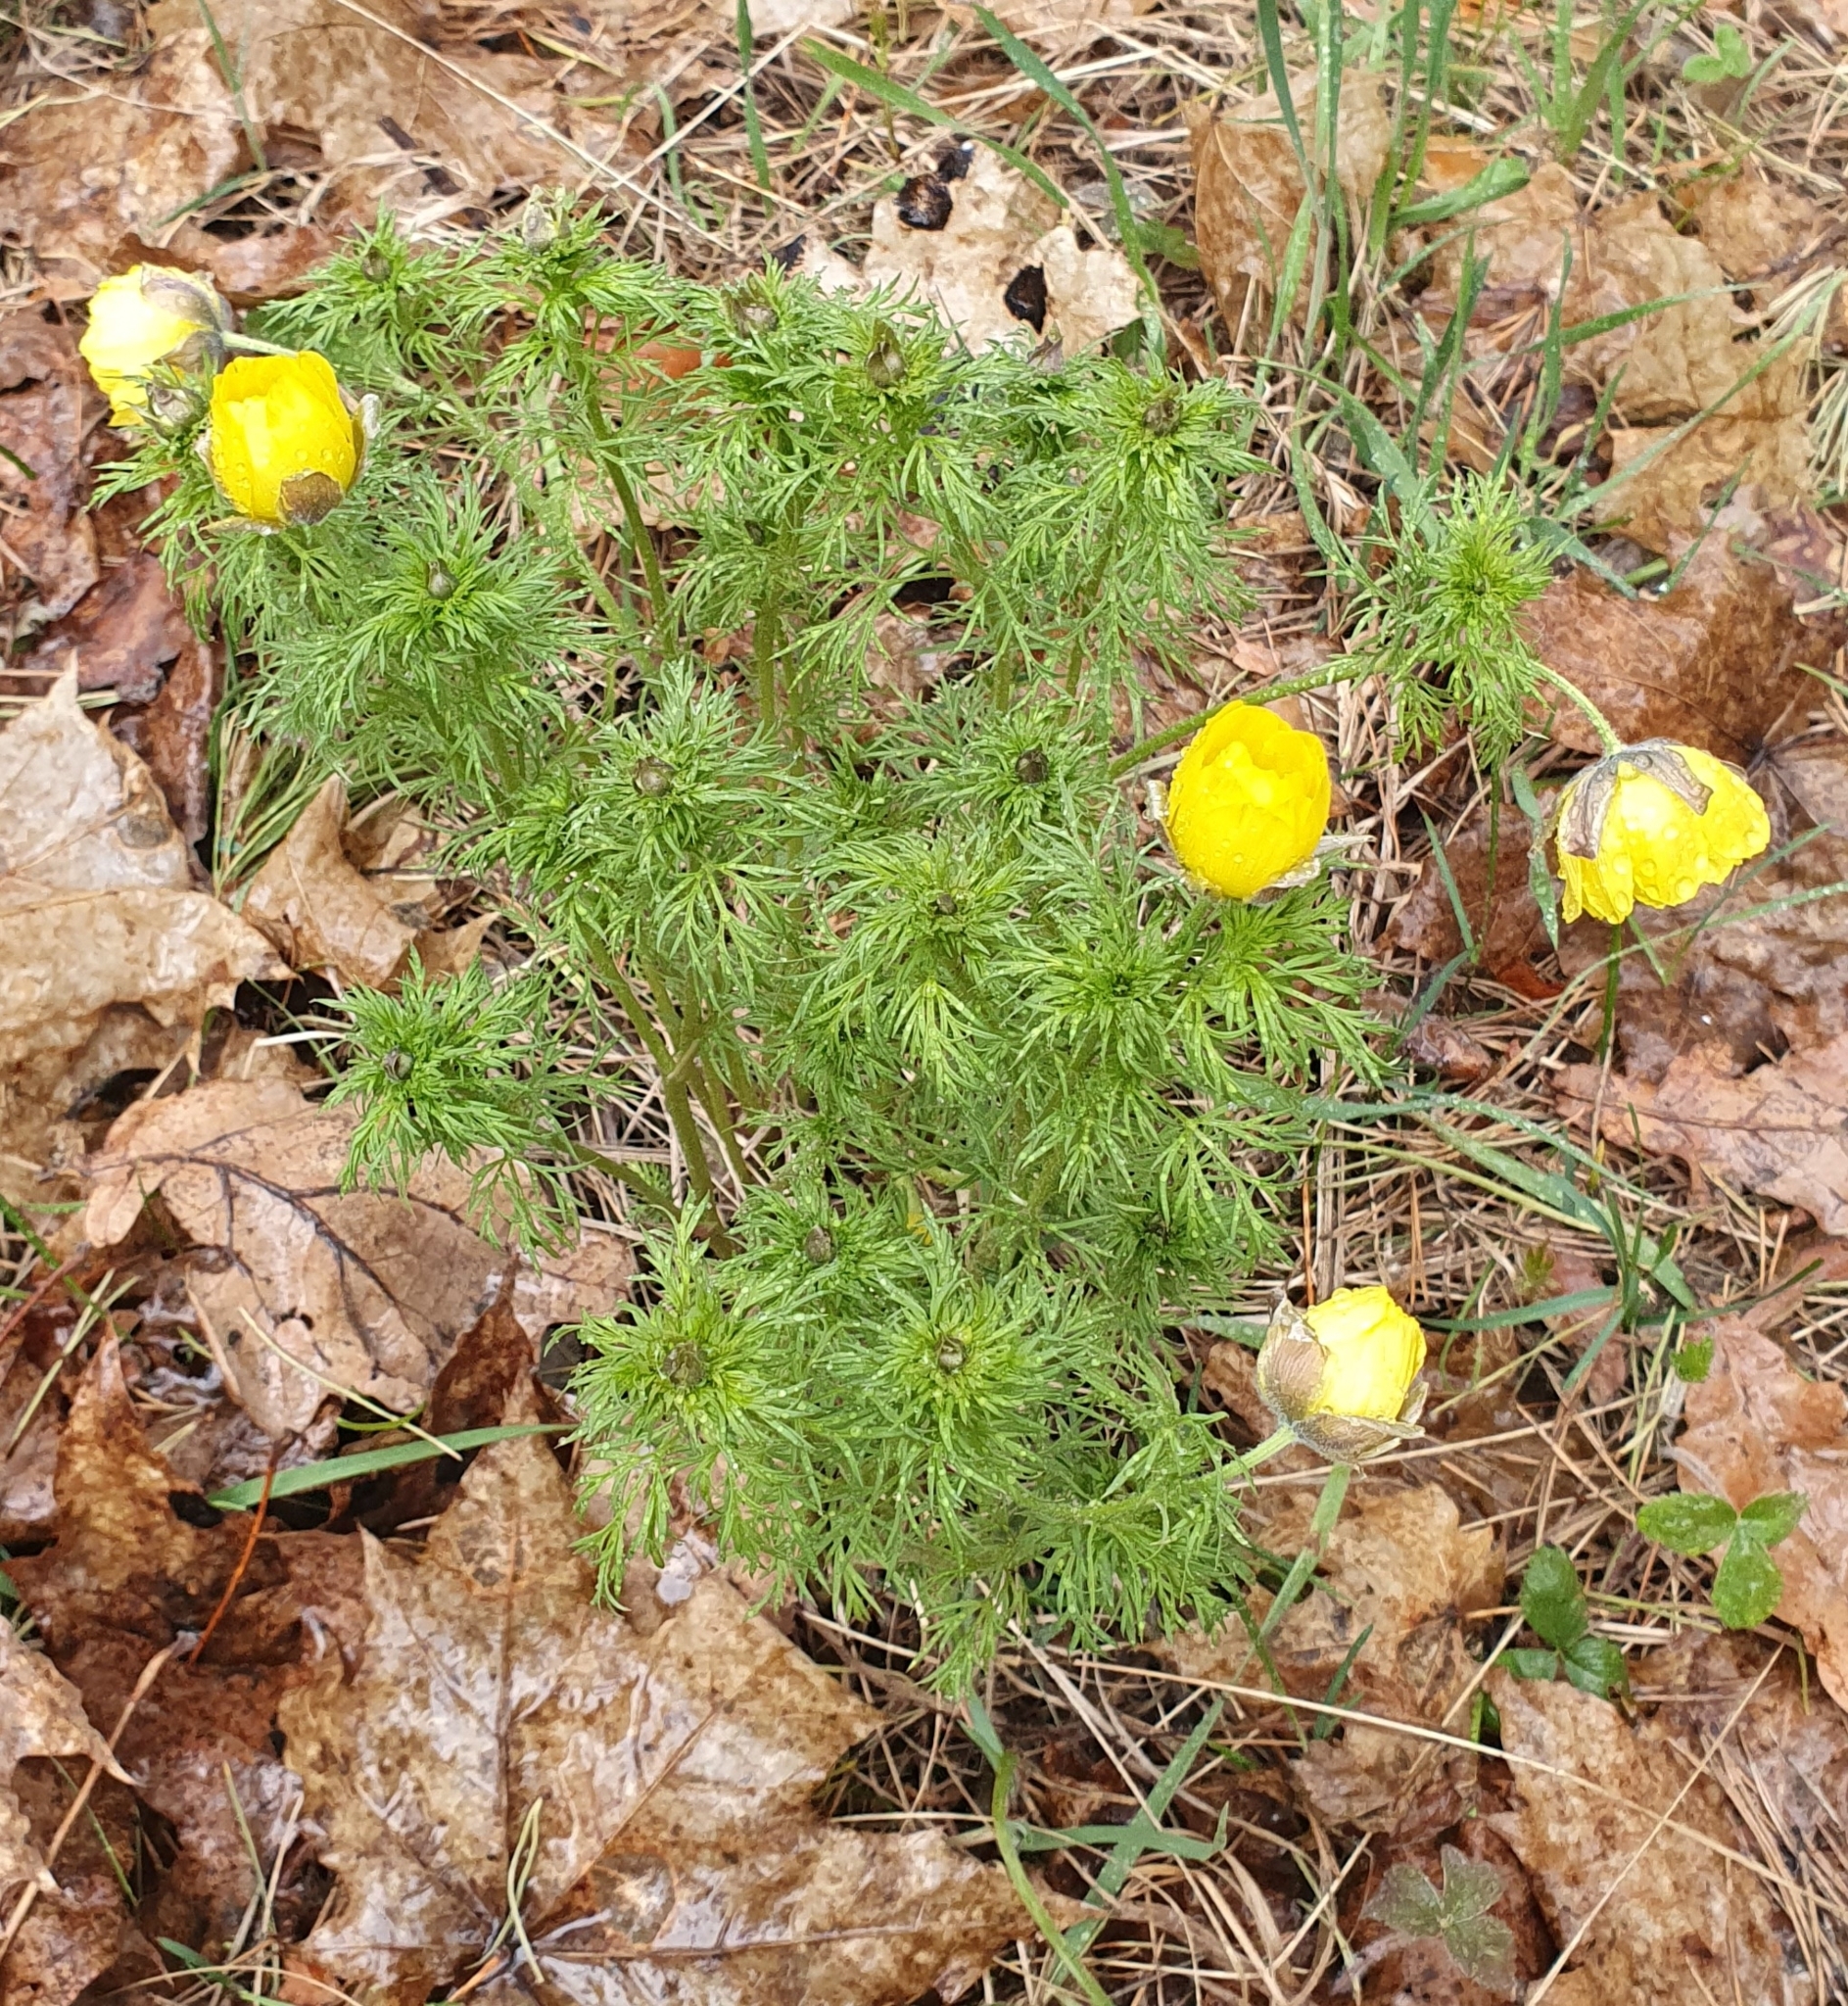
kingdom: Plantae
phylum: Tracheophyta
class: Magnoliopsida
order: Ranunculales
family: Ranunculaceae
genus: Adonis
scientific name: Adonis volgensis
